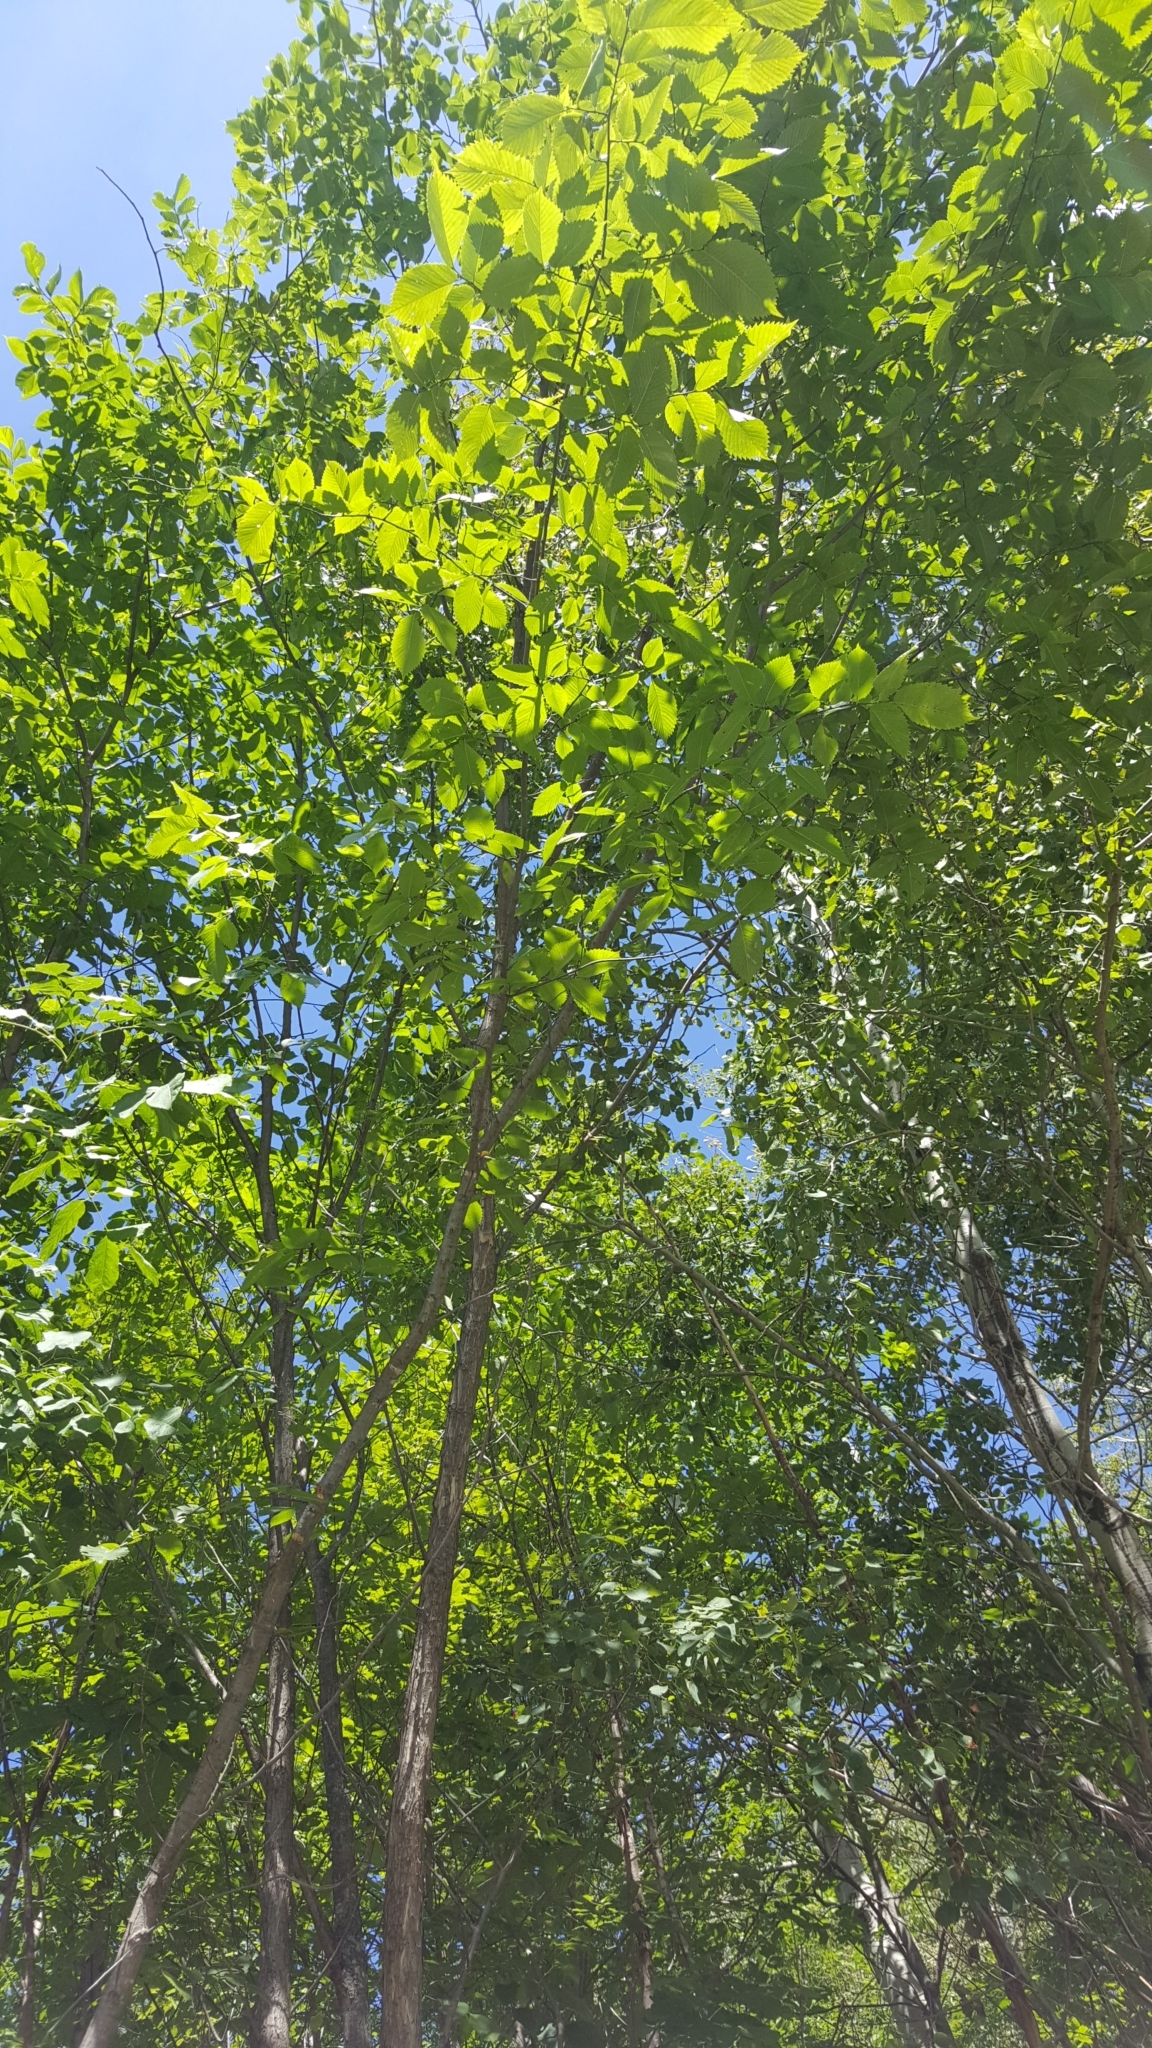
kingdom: Plantae
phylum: Tracheophyta
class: Magnoliopsida
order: Rosales
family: Ulmaceae
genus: Ulmus
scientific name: Ulmus americana
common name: American elm
